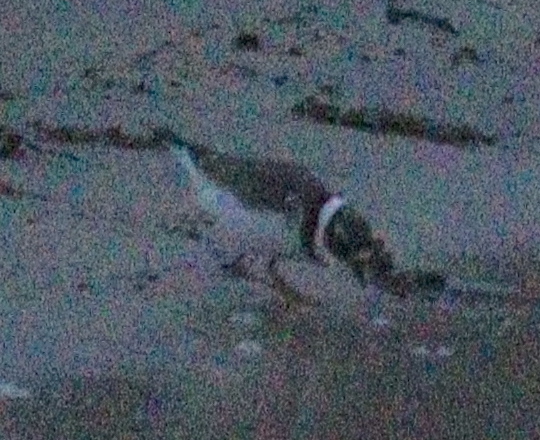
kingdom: Animalia
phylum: Chordata
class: Aves
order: Charadriiformes
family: Charadriidae
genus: Charadrius
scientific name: Charadrius hiaticula
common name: Common ringed plover
